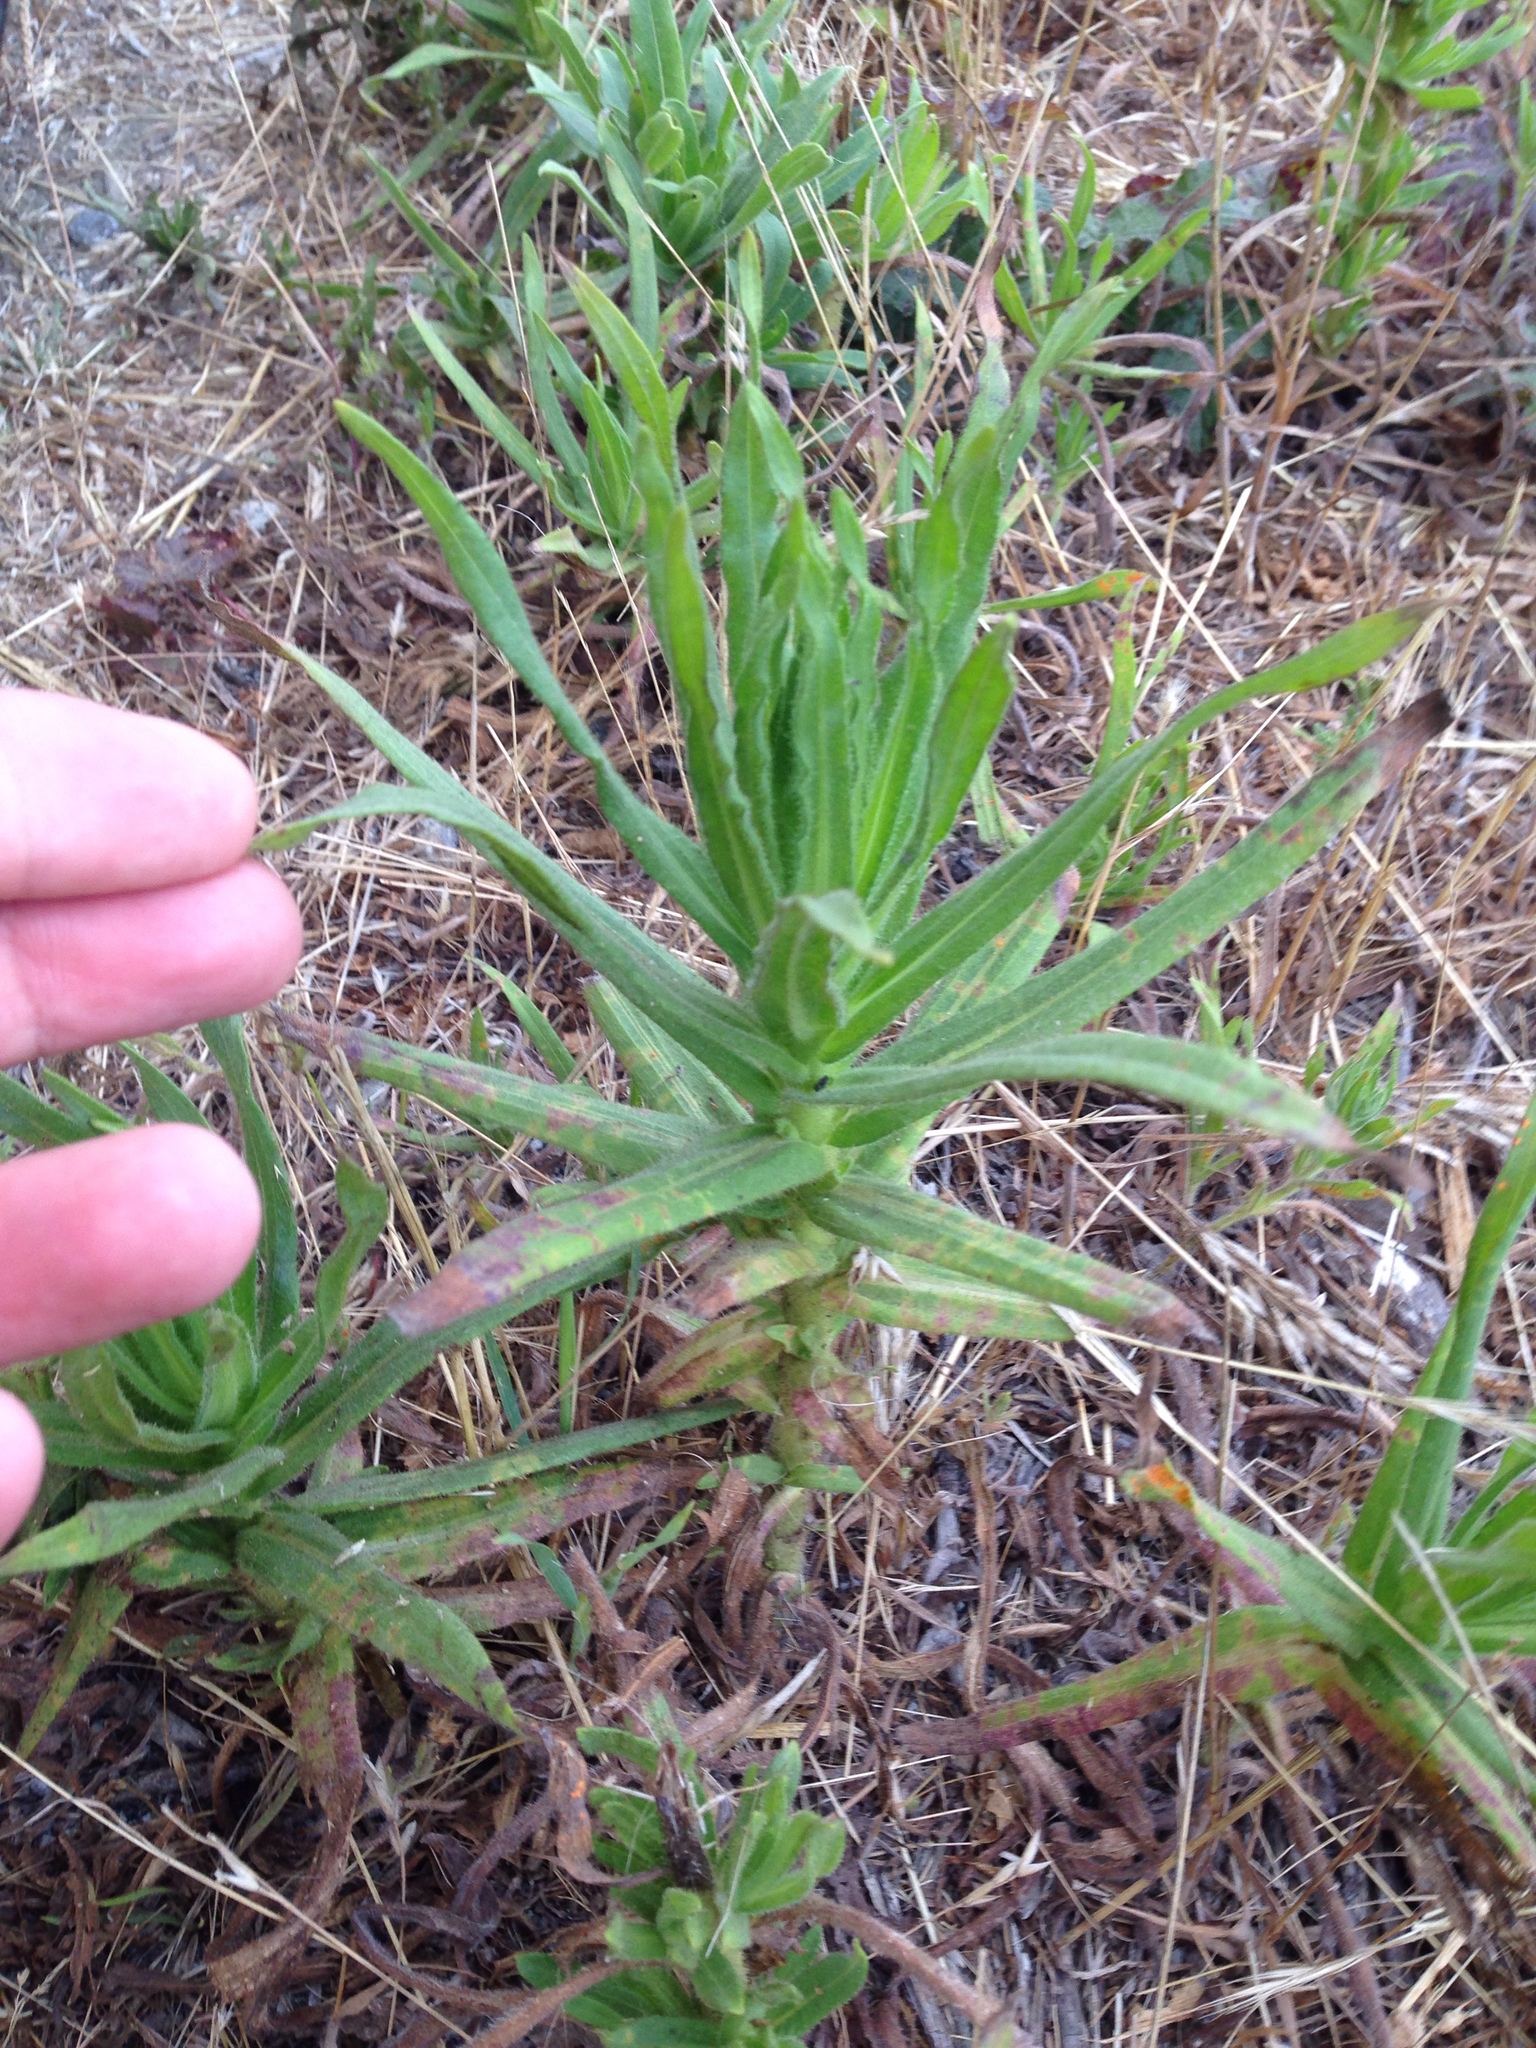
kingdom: Plantae
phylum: Tracheophyta
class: Magnoliopsida
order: Asterales
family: Asteraceae
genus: Madia
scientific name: Madia sativa
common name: Coast tarweed
